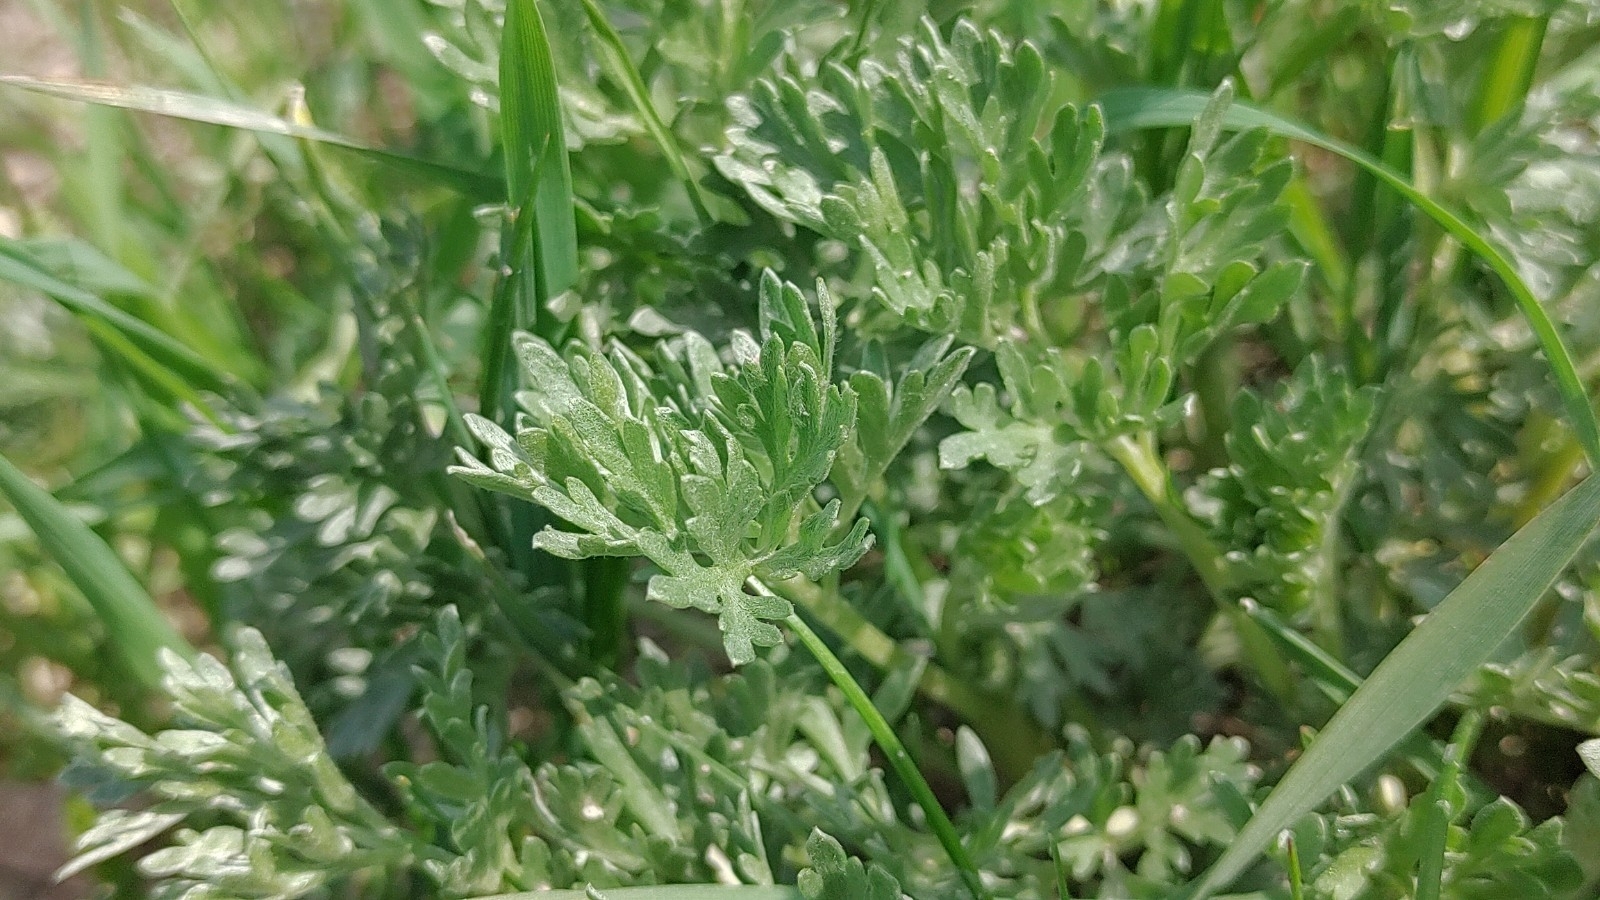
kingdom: Plantae
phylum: Tracheophyta
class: Magnoliopsida
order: Asterales
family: Asteraceae
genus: Artemisia
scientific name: Artemisia absinthium
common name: Wormwood
